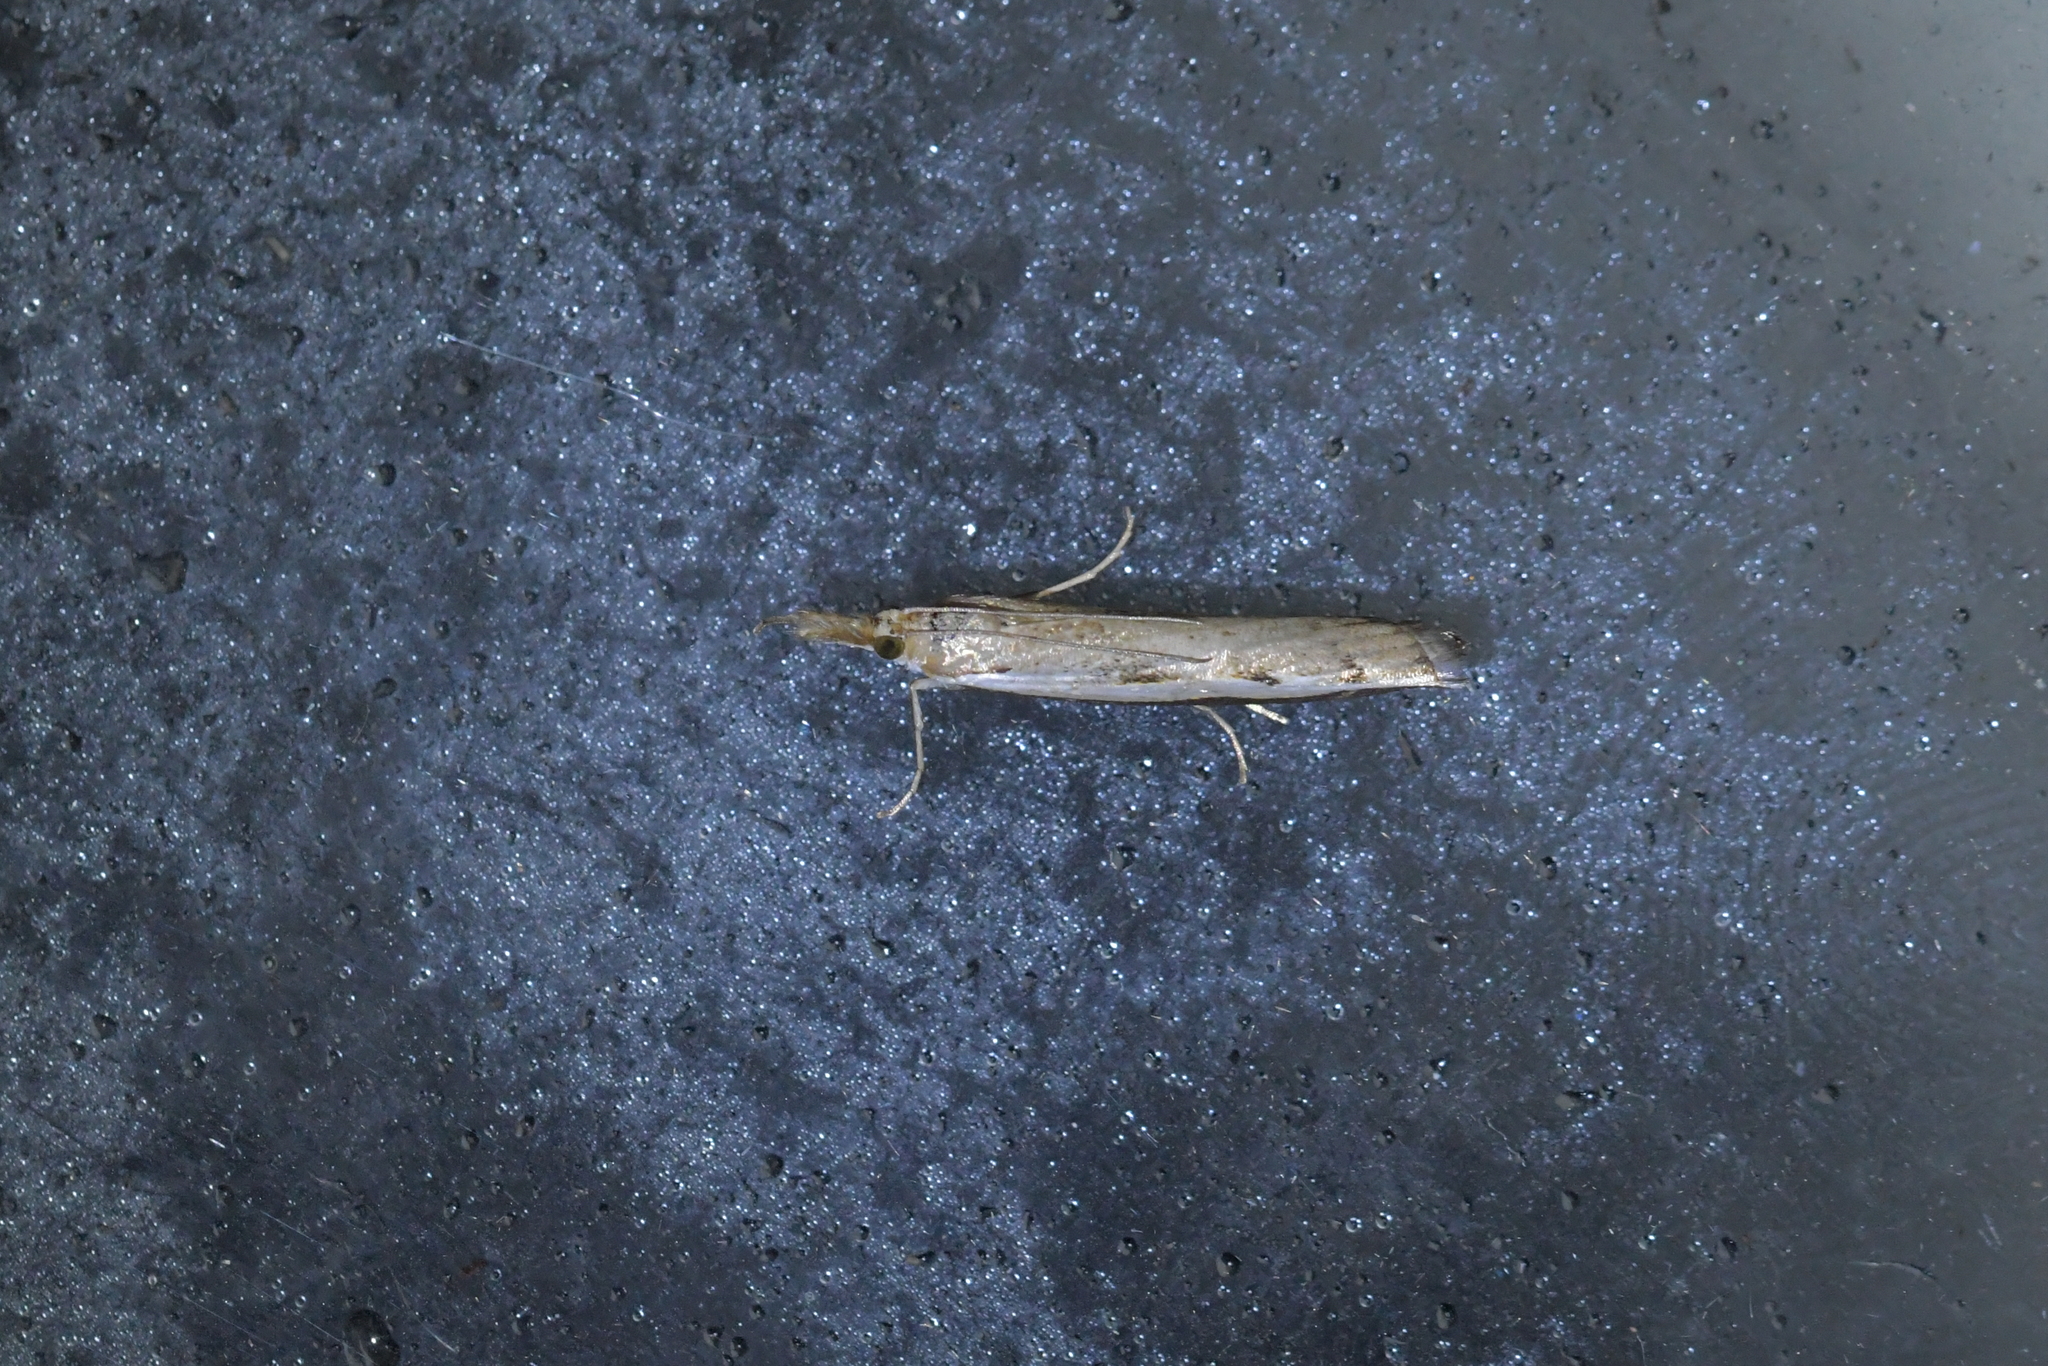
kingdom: Animalia
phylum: Arthropoda
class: Insecta
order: Lepidoptera
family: Crambidae
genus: Orocrambus
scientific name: Orocrambus flexuosellus
